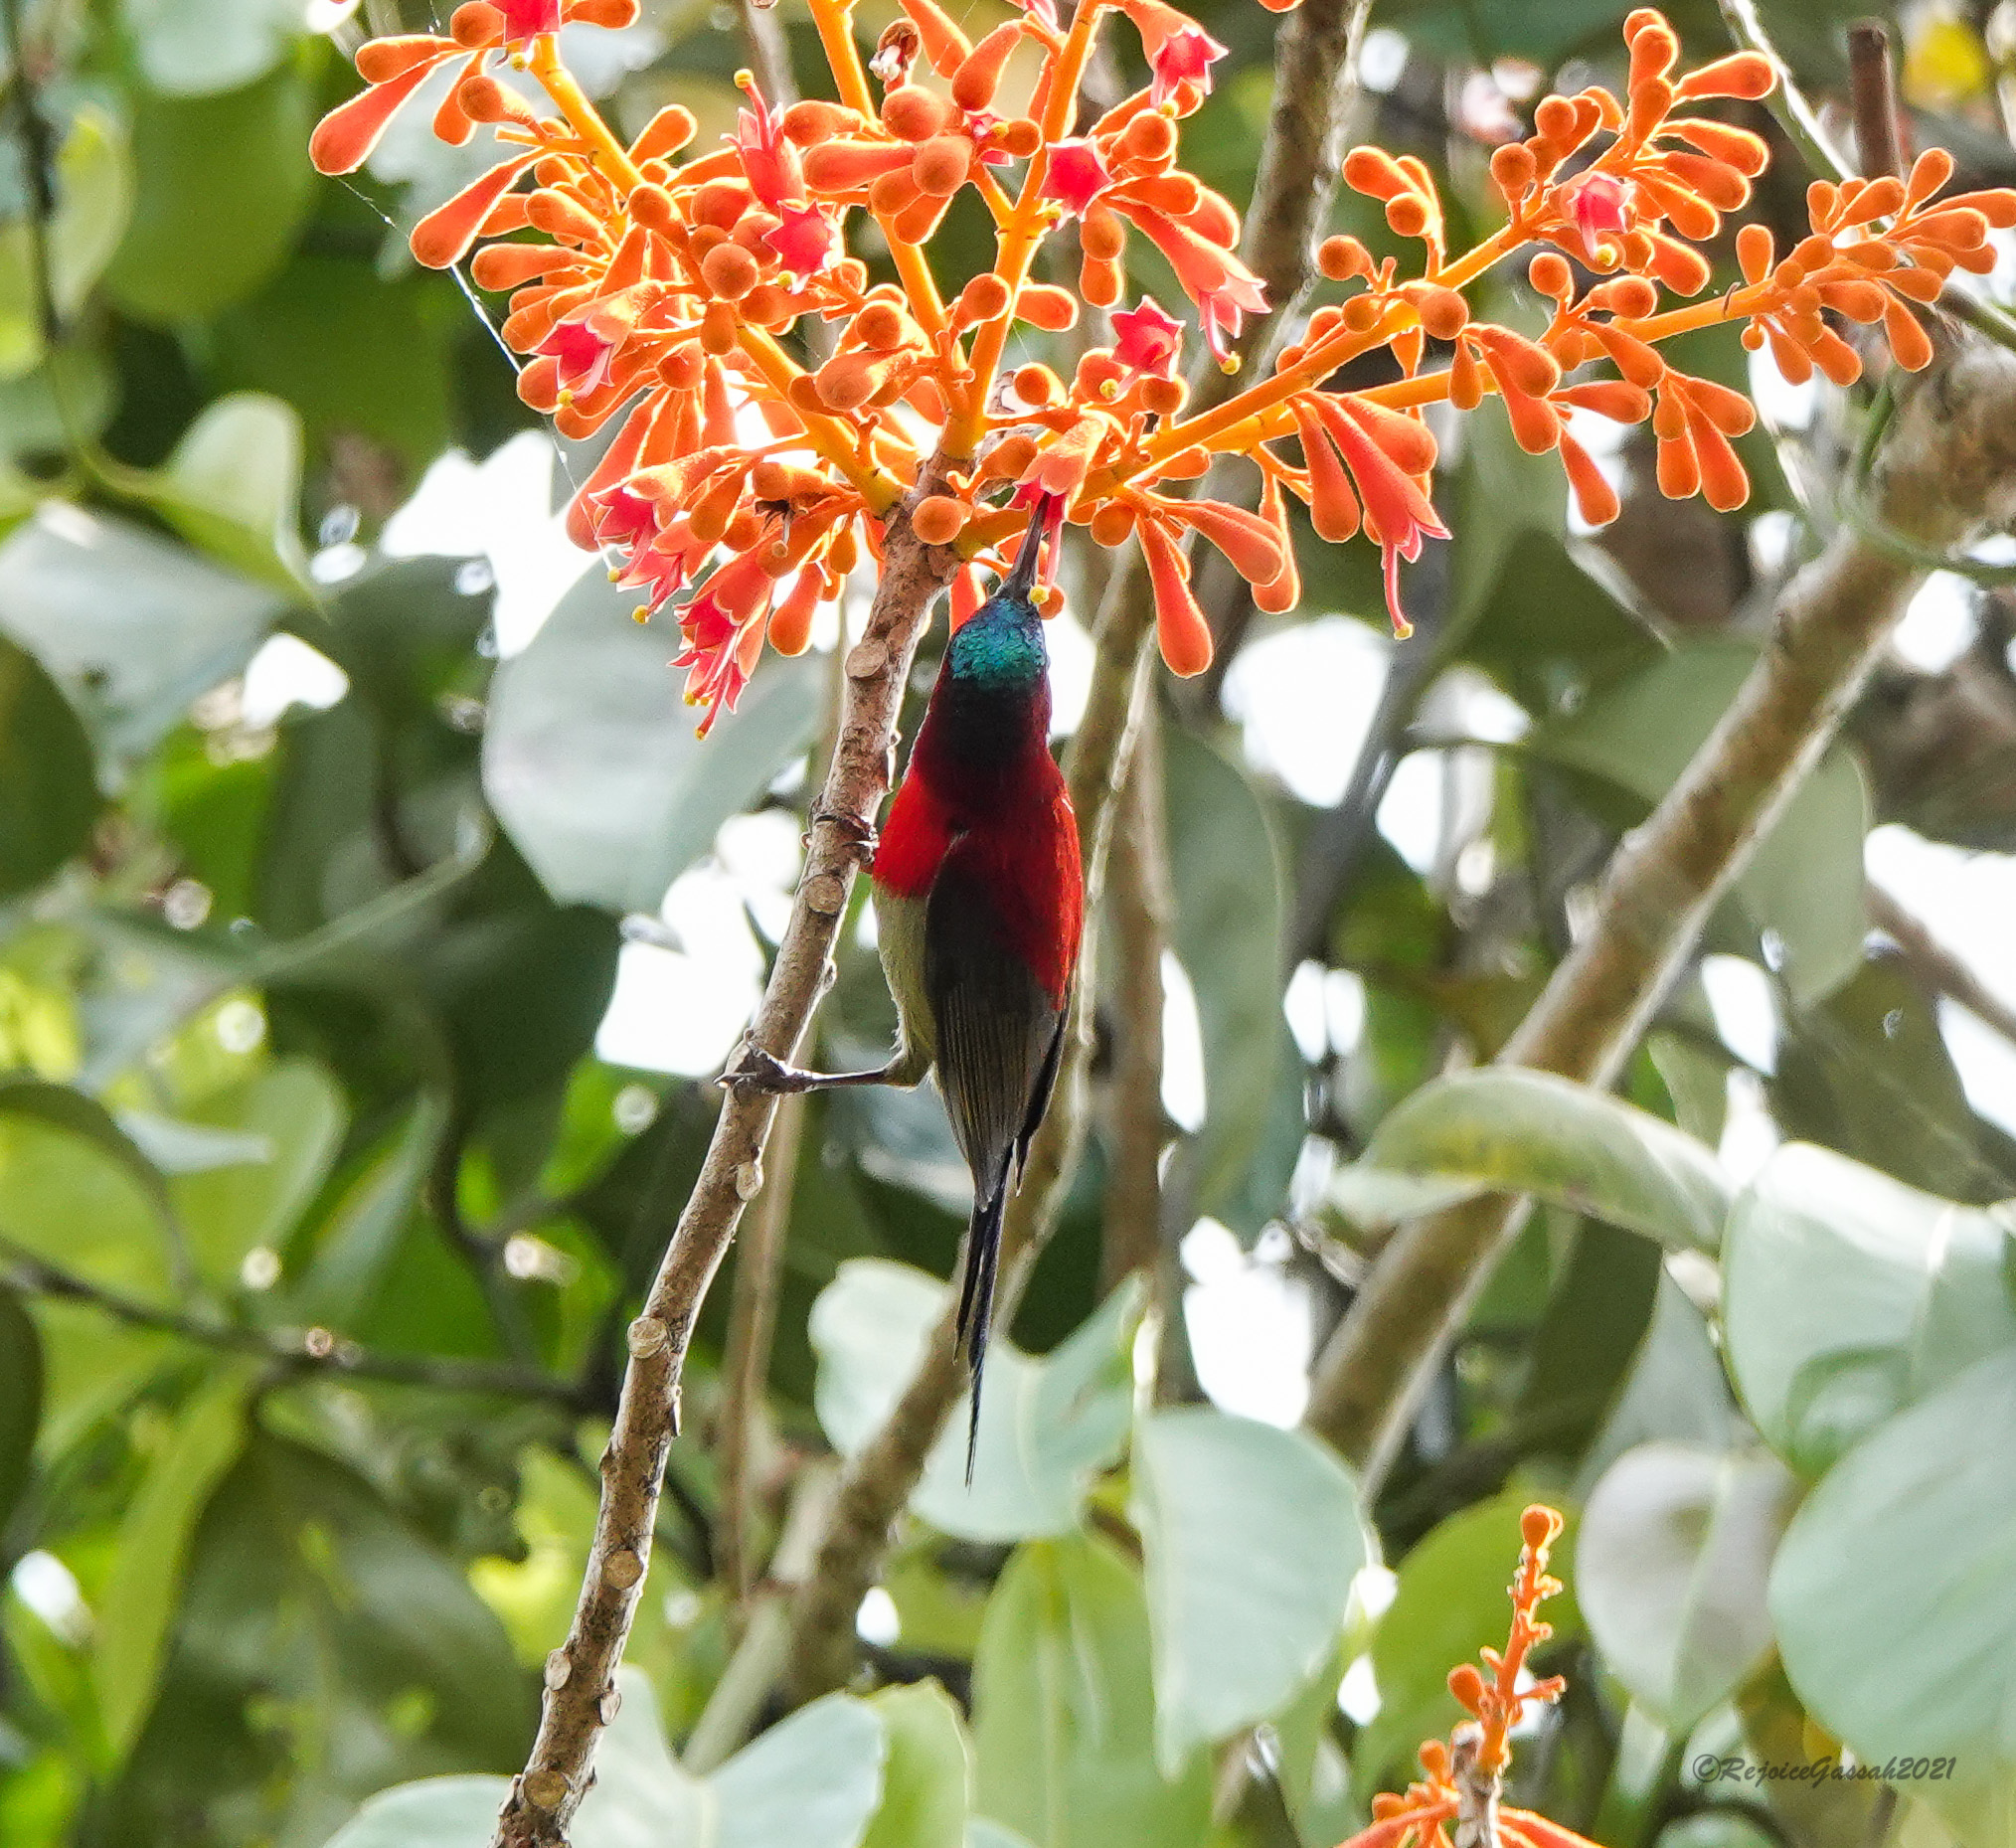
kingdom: Animalia
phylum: Chordata
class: Aves
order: Passeriformes
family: Nectariniidae
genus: Aethopyga
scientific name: Aethopyga siparaja
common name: Crimson sunbird
